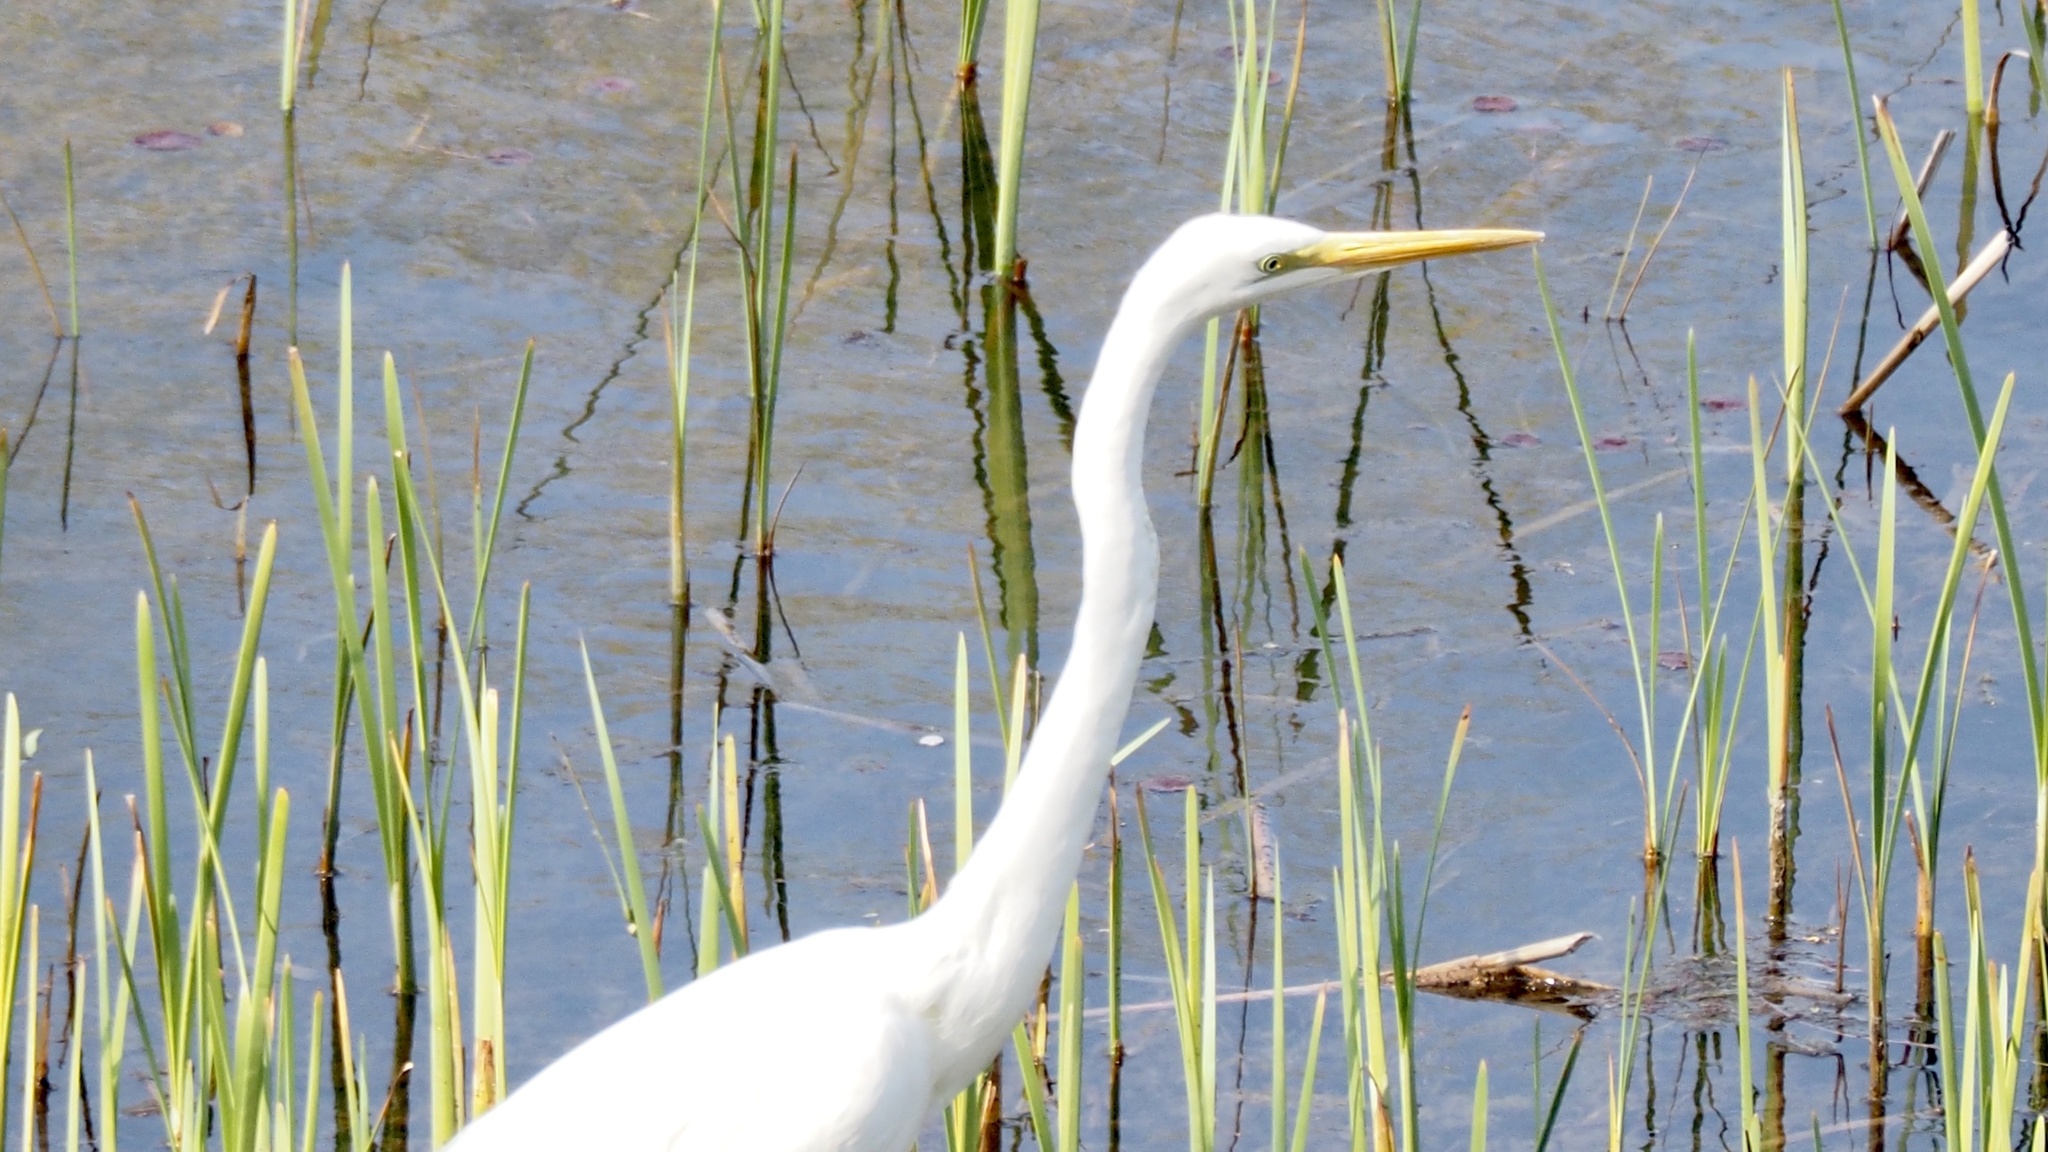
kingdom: Animalia
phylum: Chordata
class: Aves
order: Pelecaniformes
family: Ardeidae
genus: Ardea
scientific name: Ardea alba
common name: Great egret
